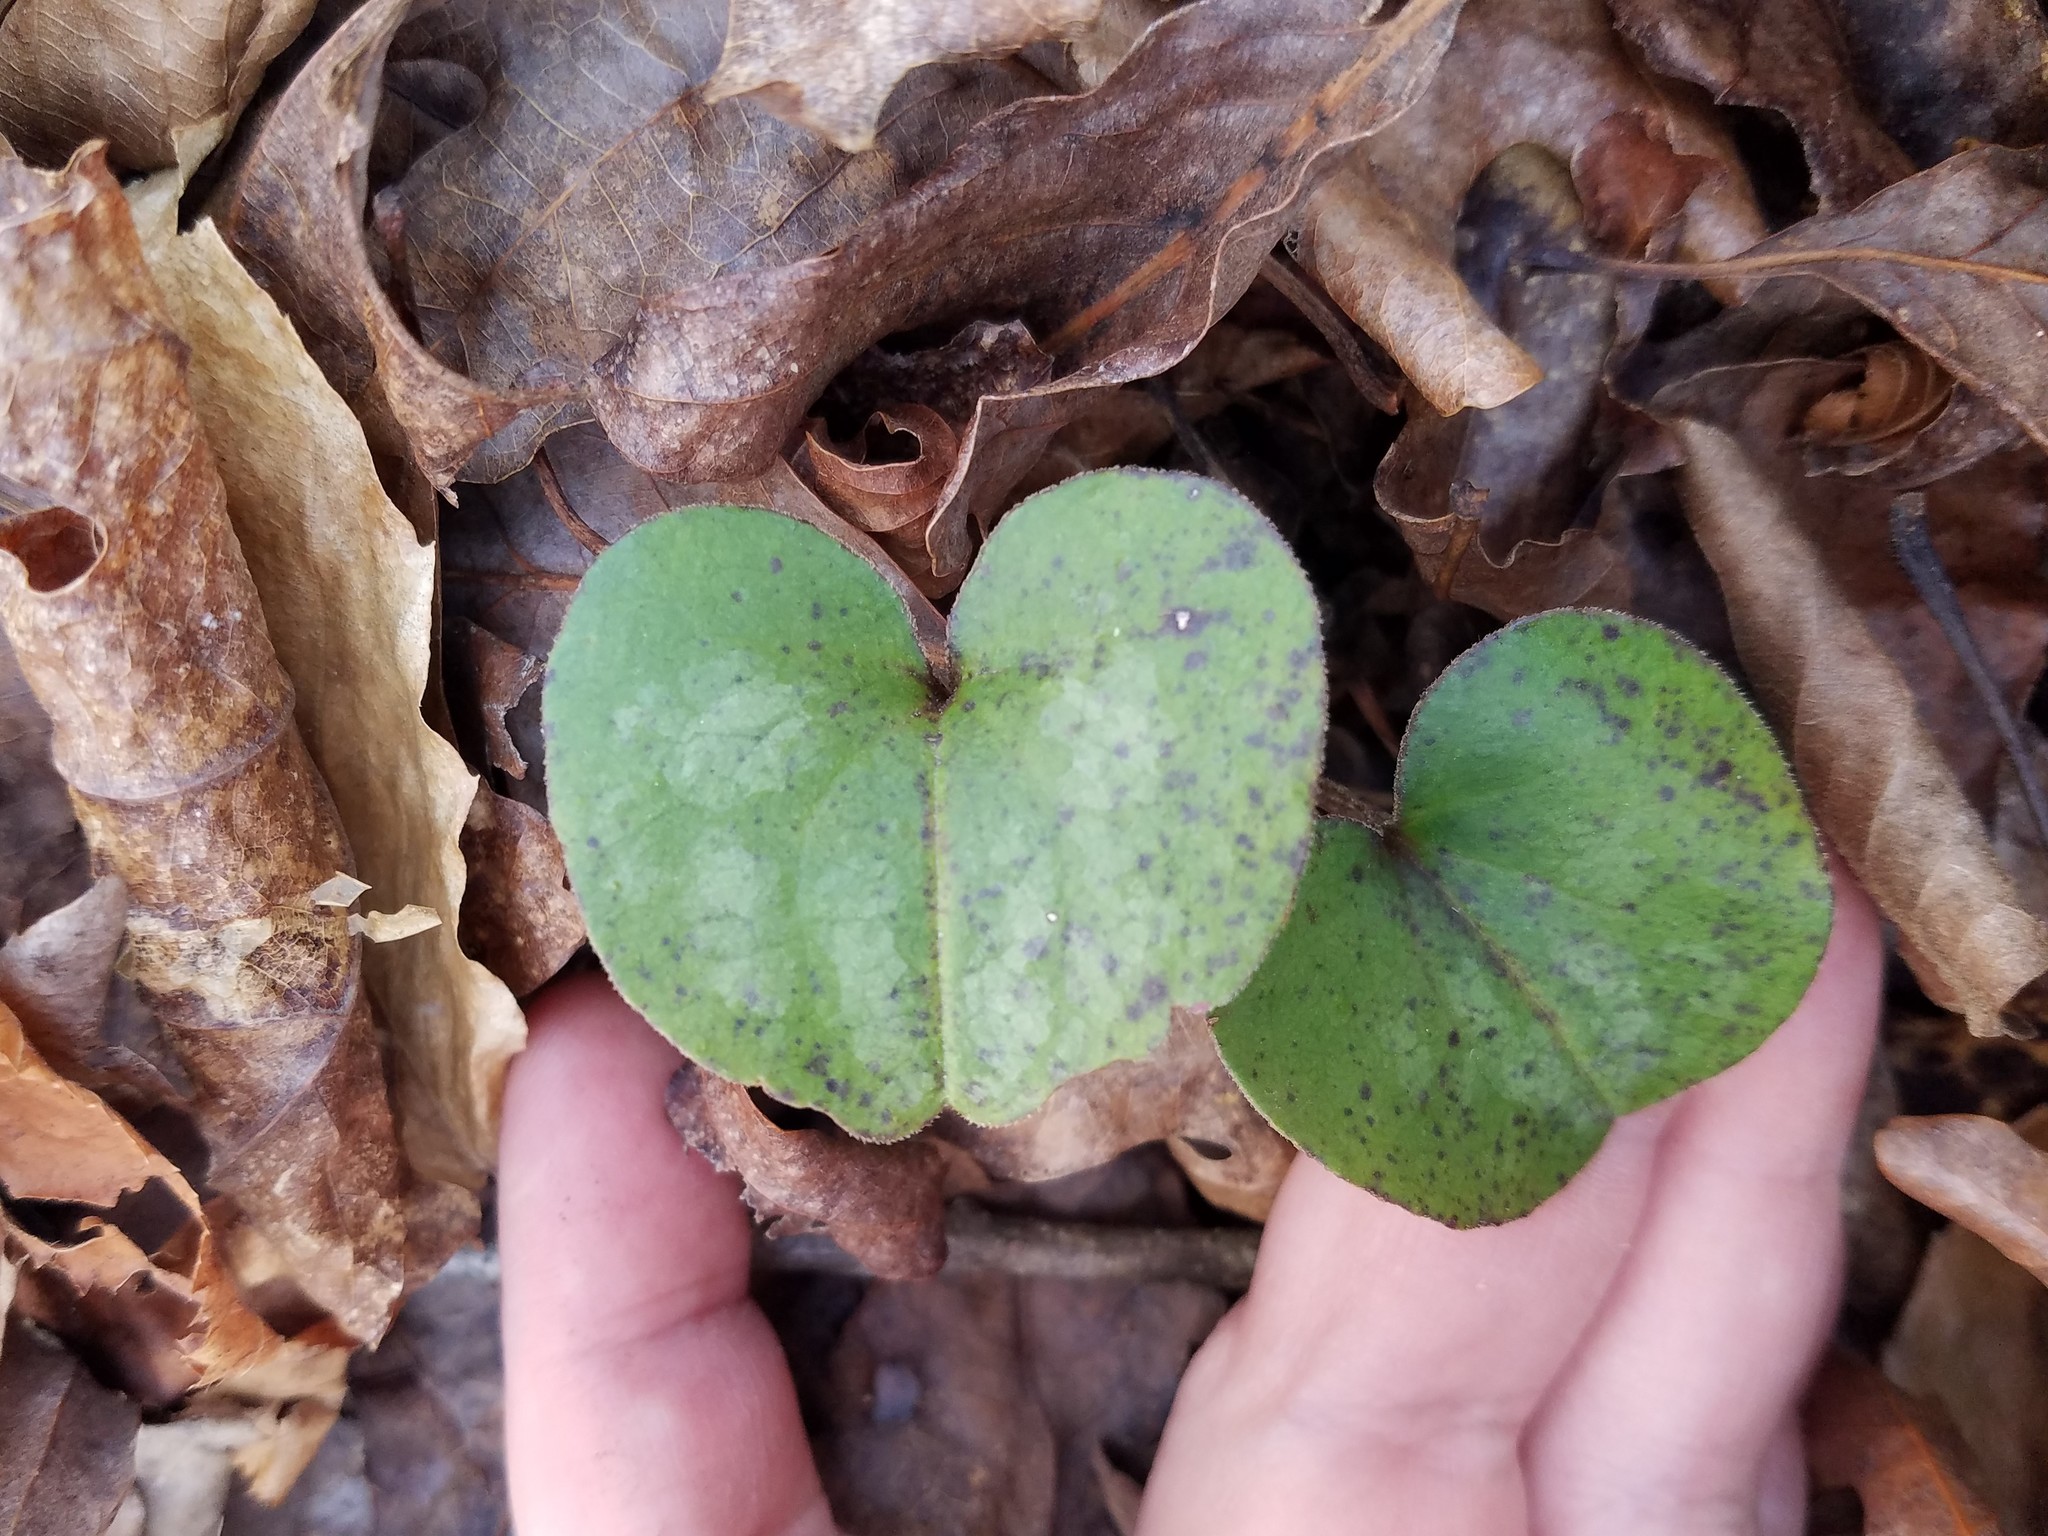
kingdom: Plantae
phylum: Tracheophyta
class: Magnoliopsida
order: Piperales
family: Aristolochiaceae
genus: Hexastylis
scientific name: Hexastylis arifolia
